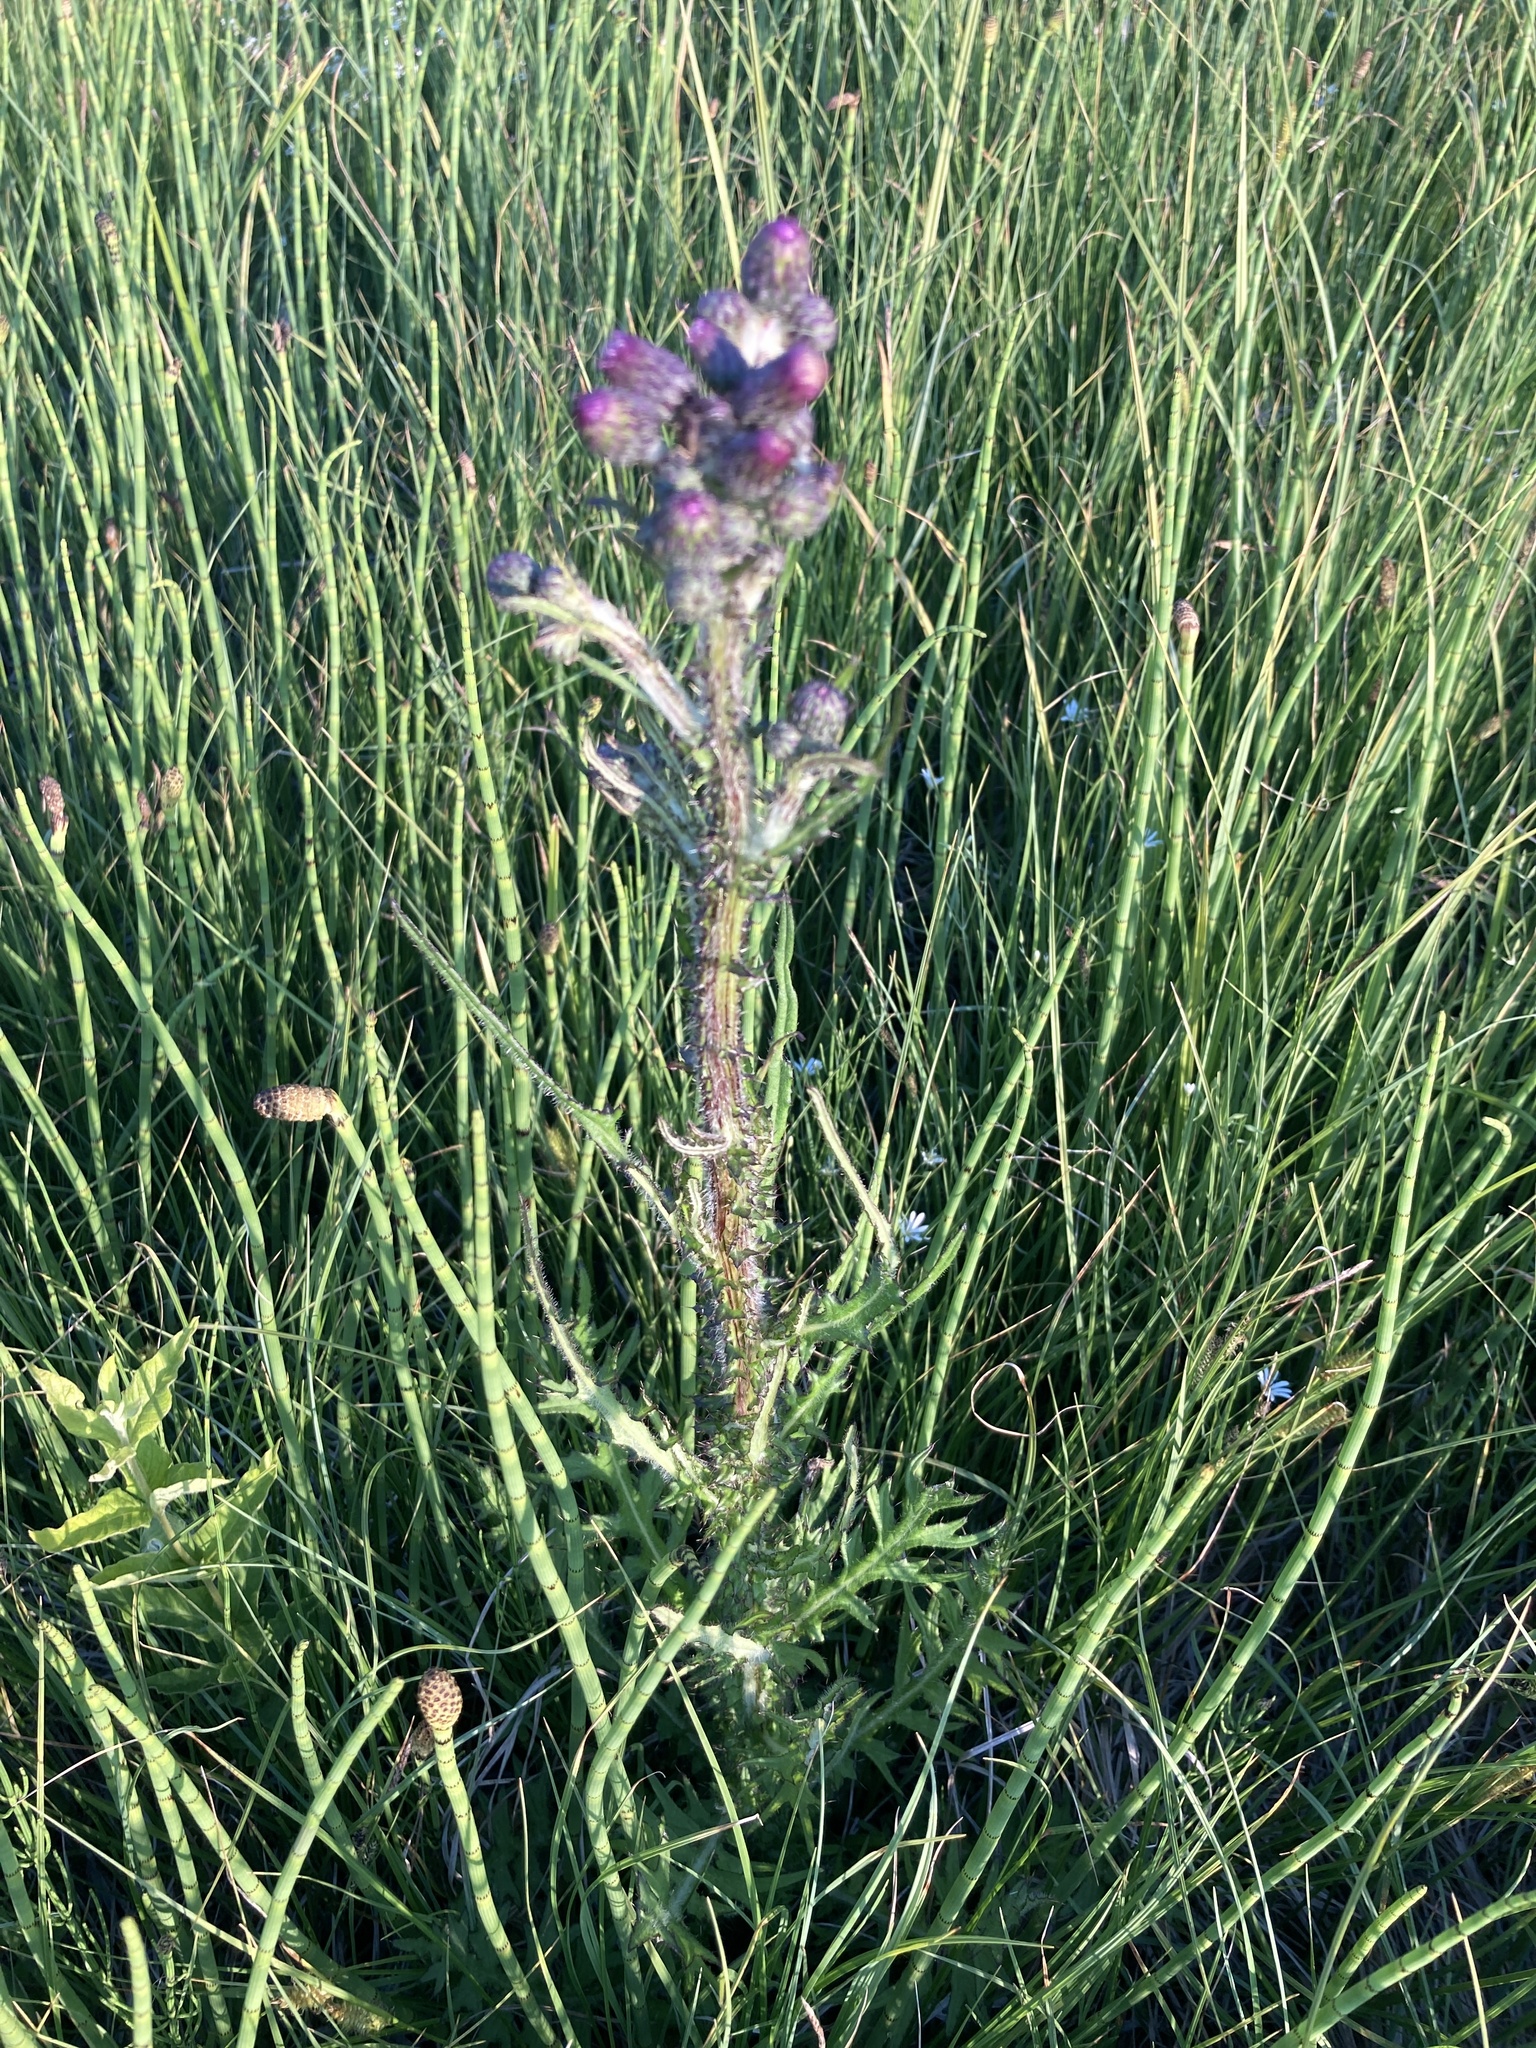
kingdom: Plantae
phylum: Tracheophyta
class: Magnoliopsida
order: Asterales
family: Asteraceae
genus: Cirsium
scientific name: Cirsium palustre
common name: Marsh thistle
